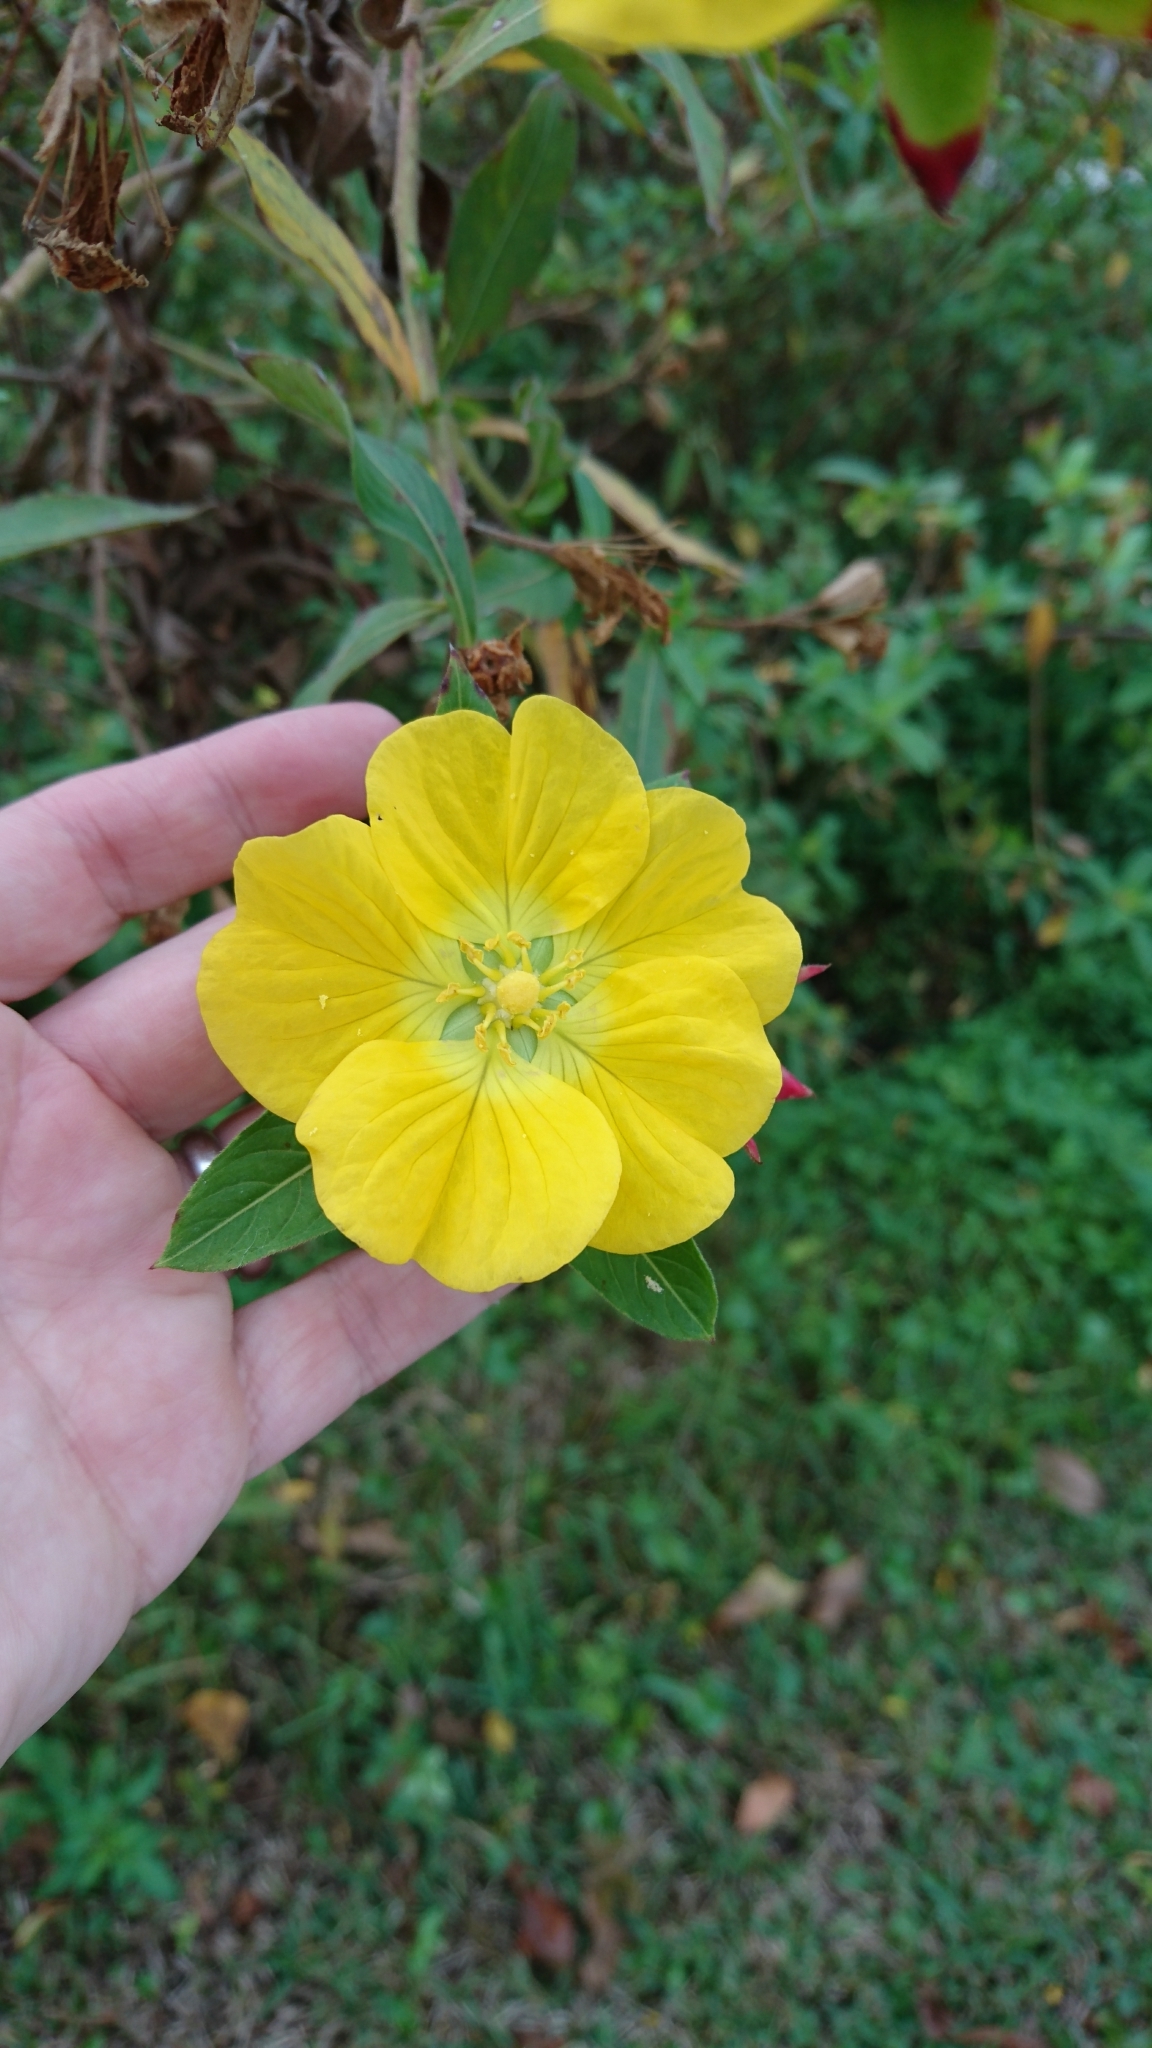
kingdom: Plantae
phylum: Tracheophyta
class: Magnoliopsida
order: Myrtales
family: Onagraceae
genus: Ludwigia
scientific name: Ludwigia peruviana
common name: Peruvian primrose-willow
